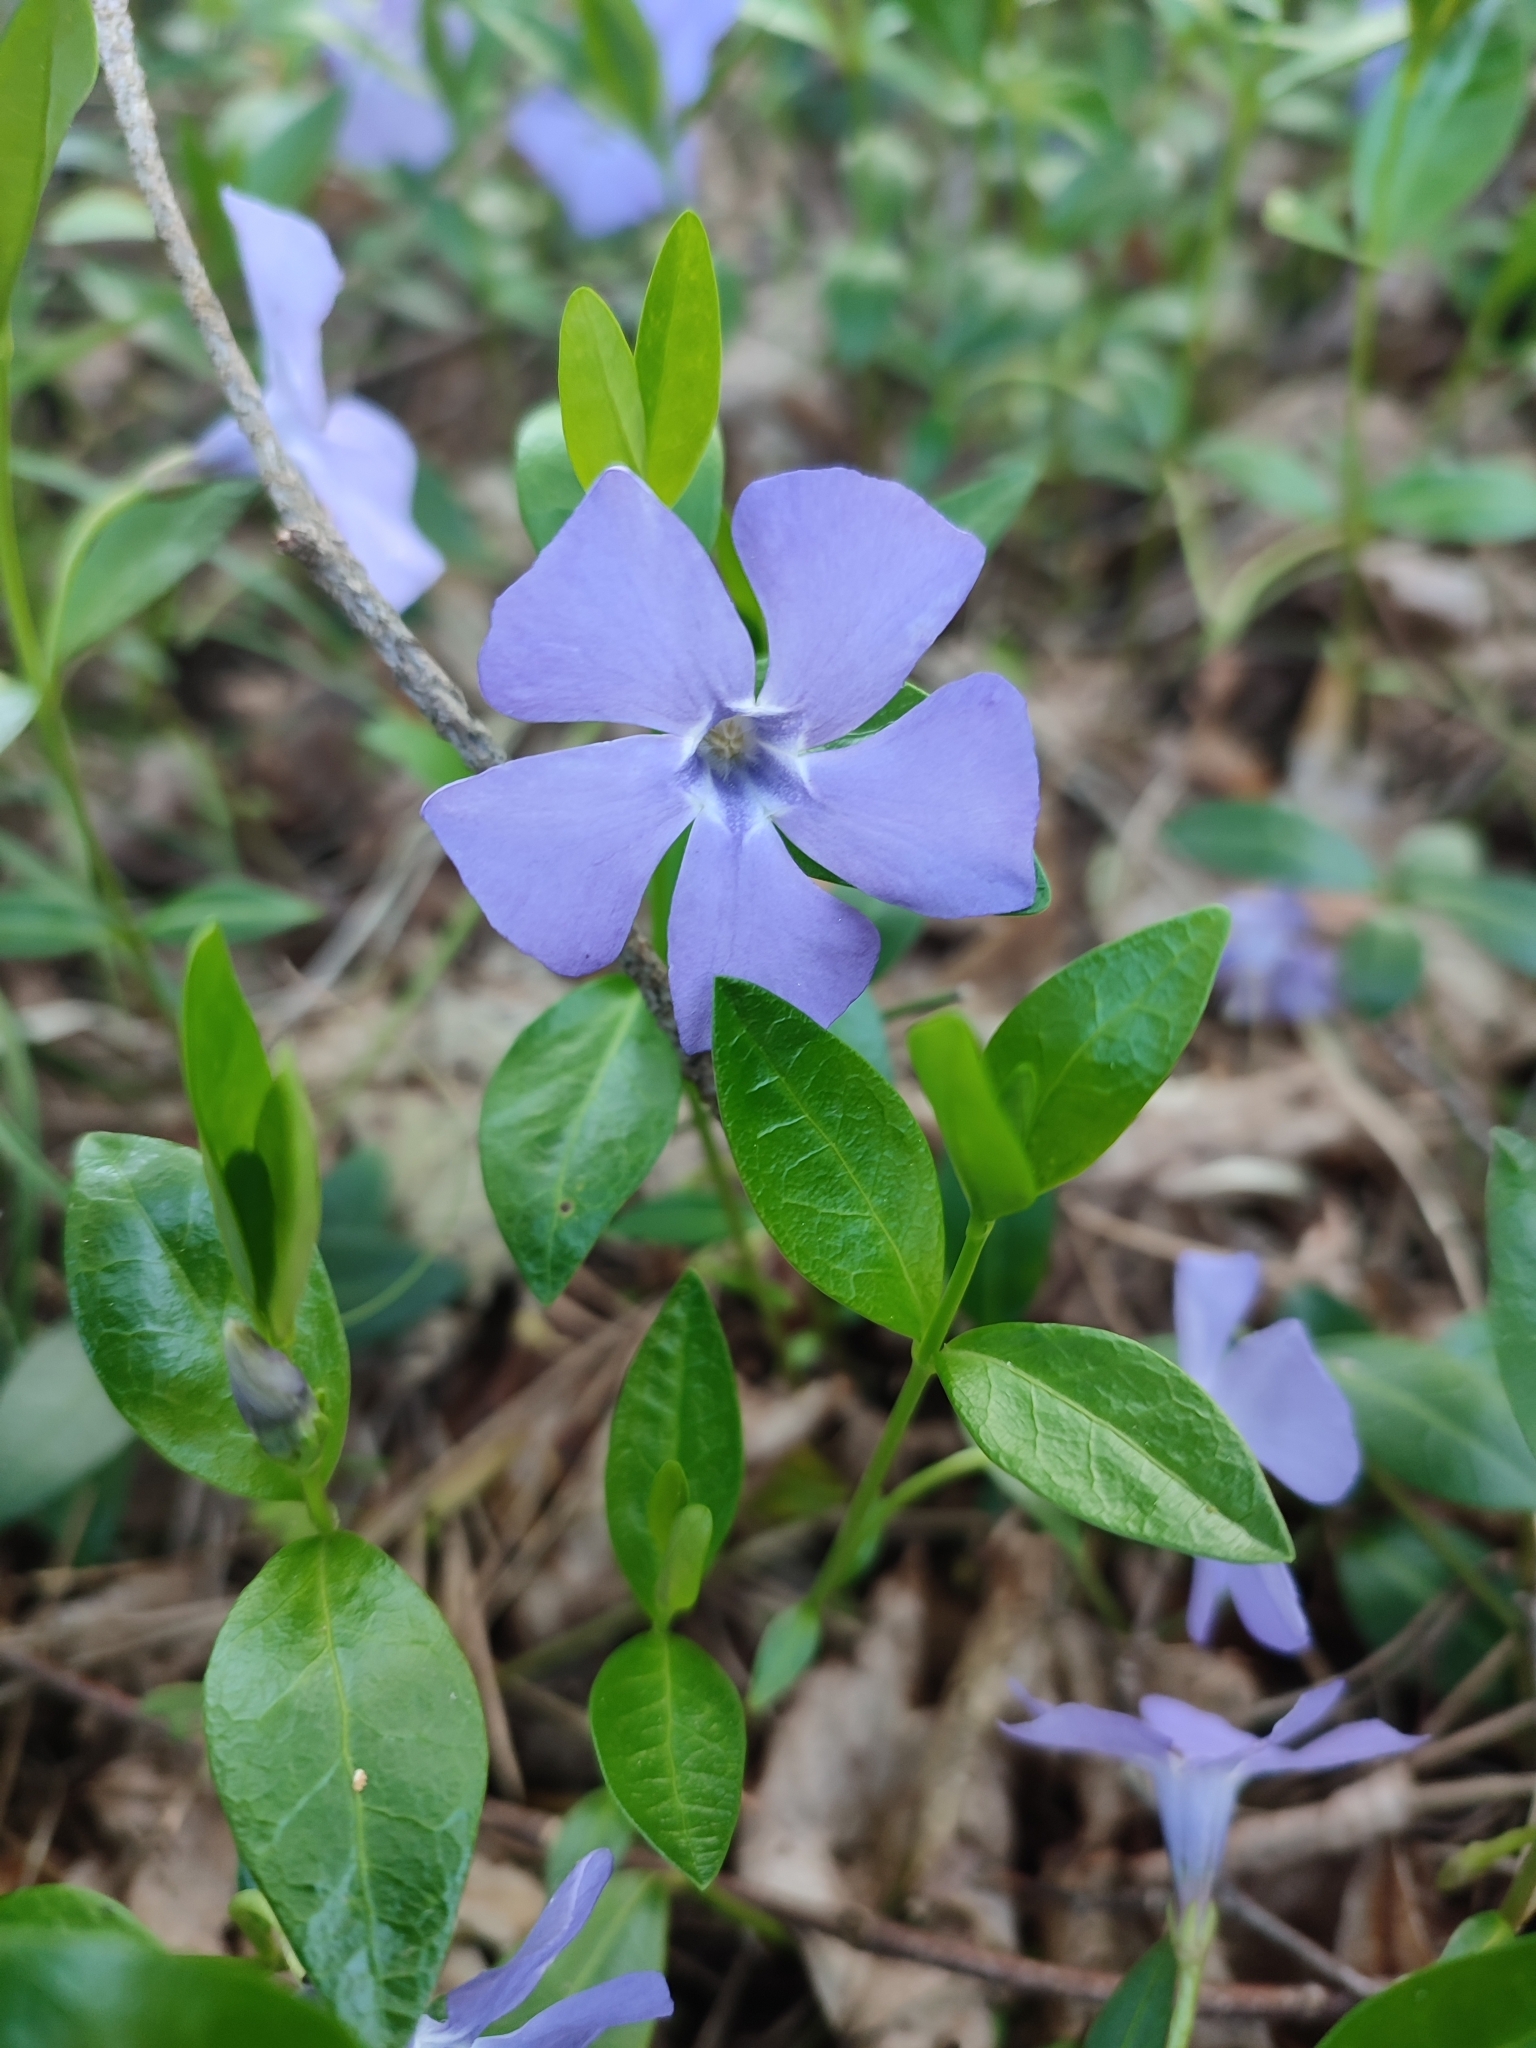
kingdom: Plantae
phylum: Tracheophyta
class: Magnoliopsida
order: Gentianales
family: Apocynaceae
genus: Vinca
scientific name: Vinca minor
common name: Lesser periwinkle
